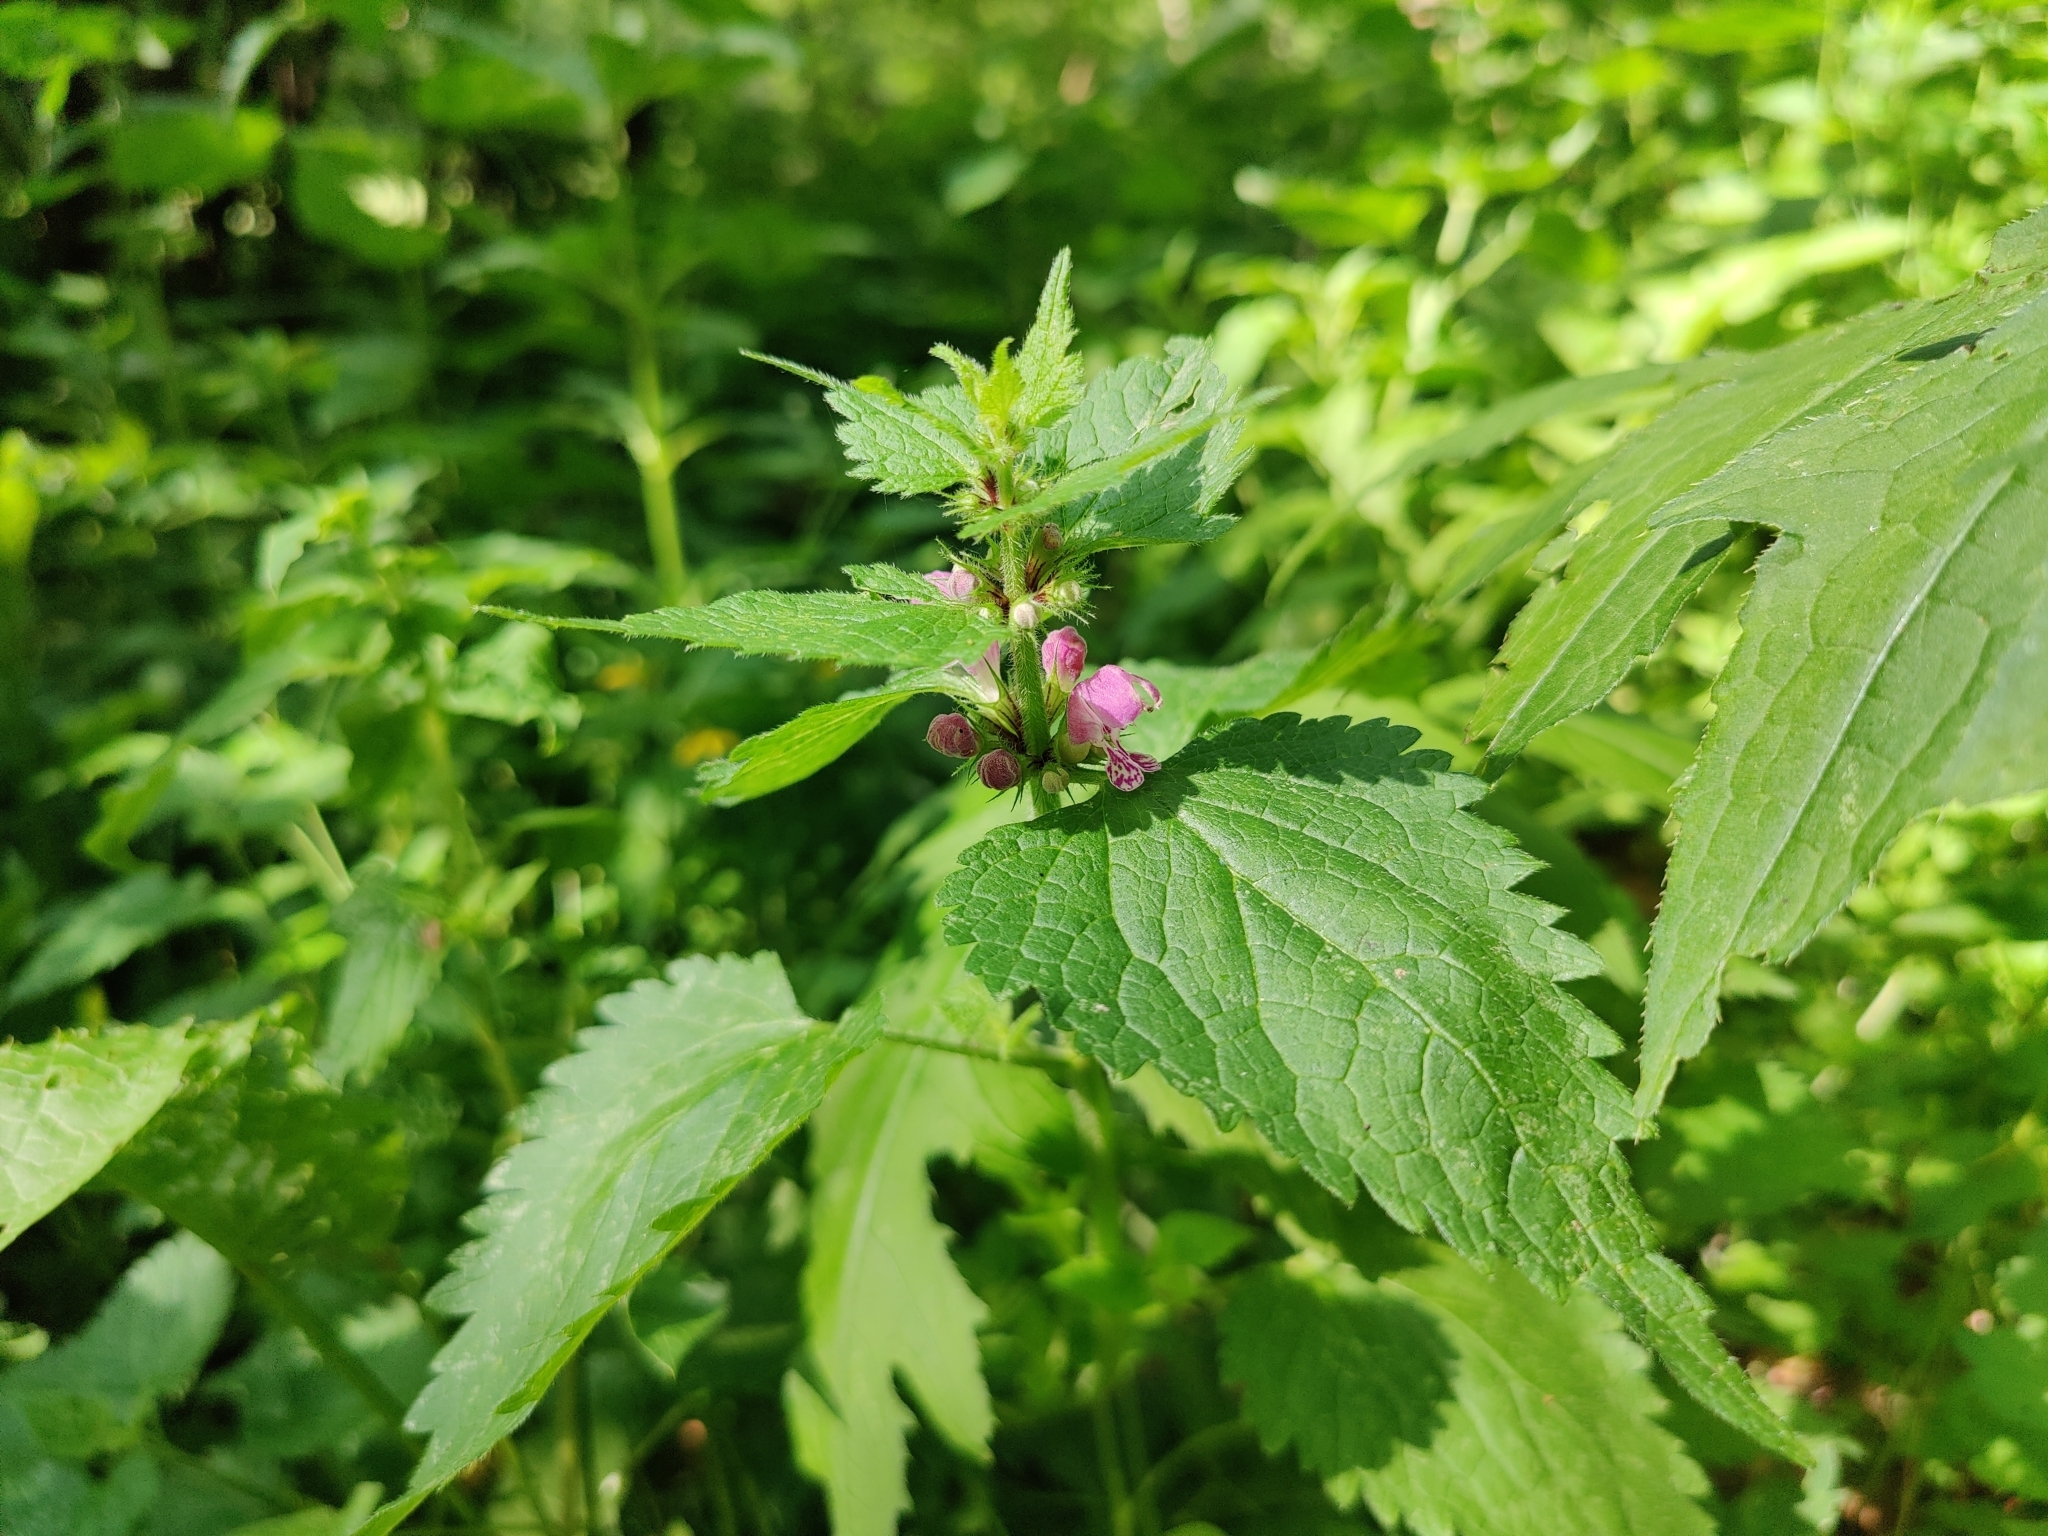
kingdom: Plantae
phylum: Tracheophyta
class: Magnoliopsida
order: Lamiales
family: Lamiaceae
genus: Lamium
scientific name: Lamium maculatum
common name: Spotted dead-nettle
